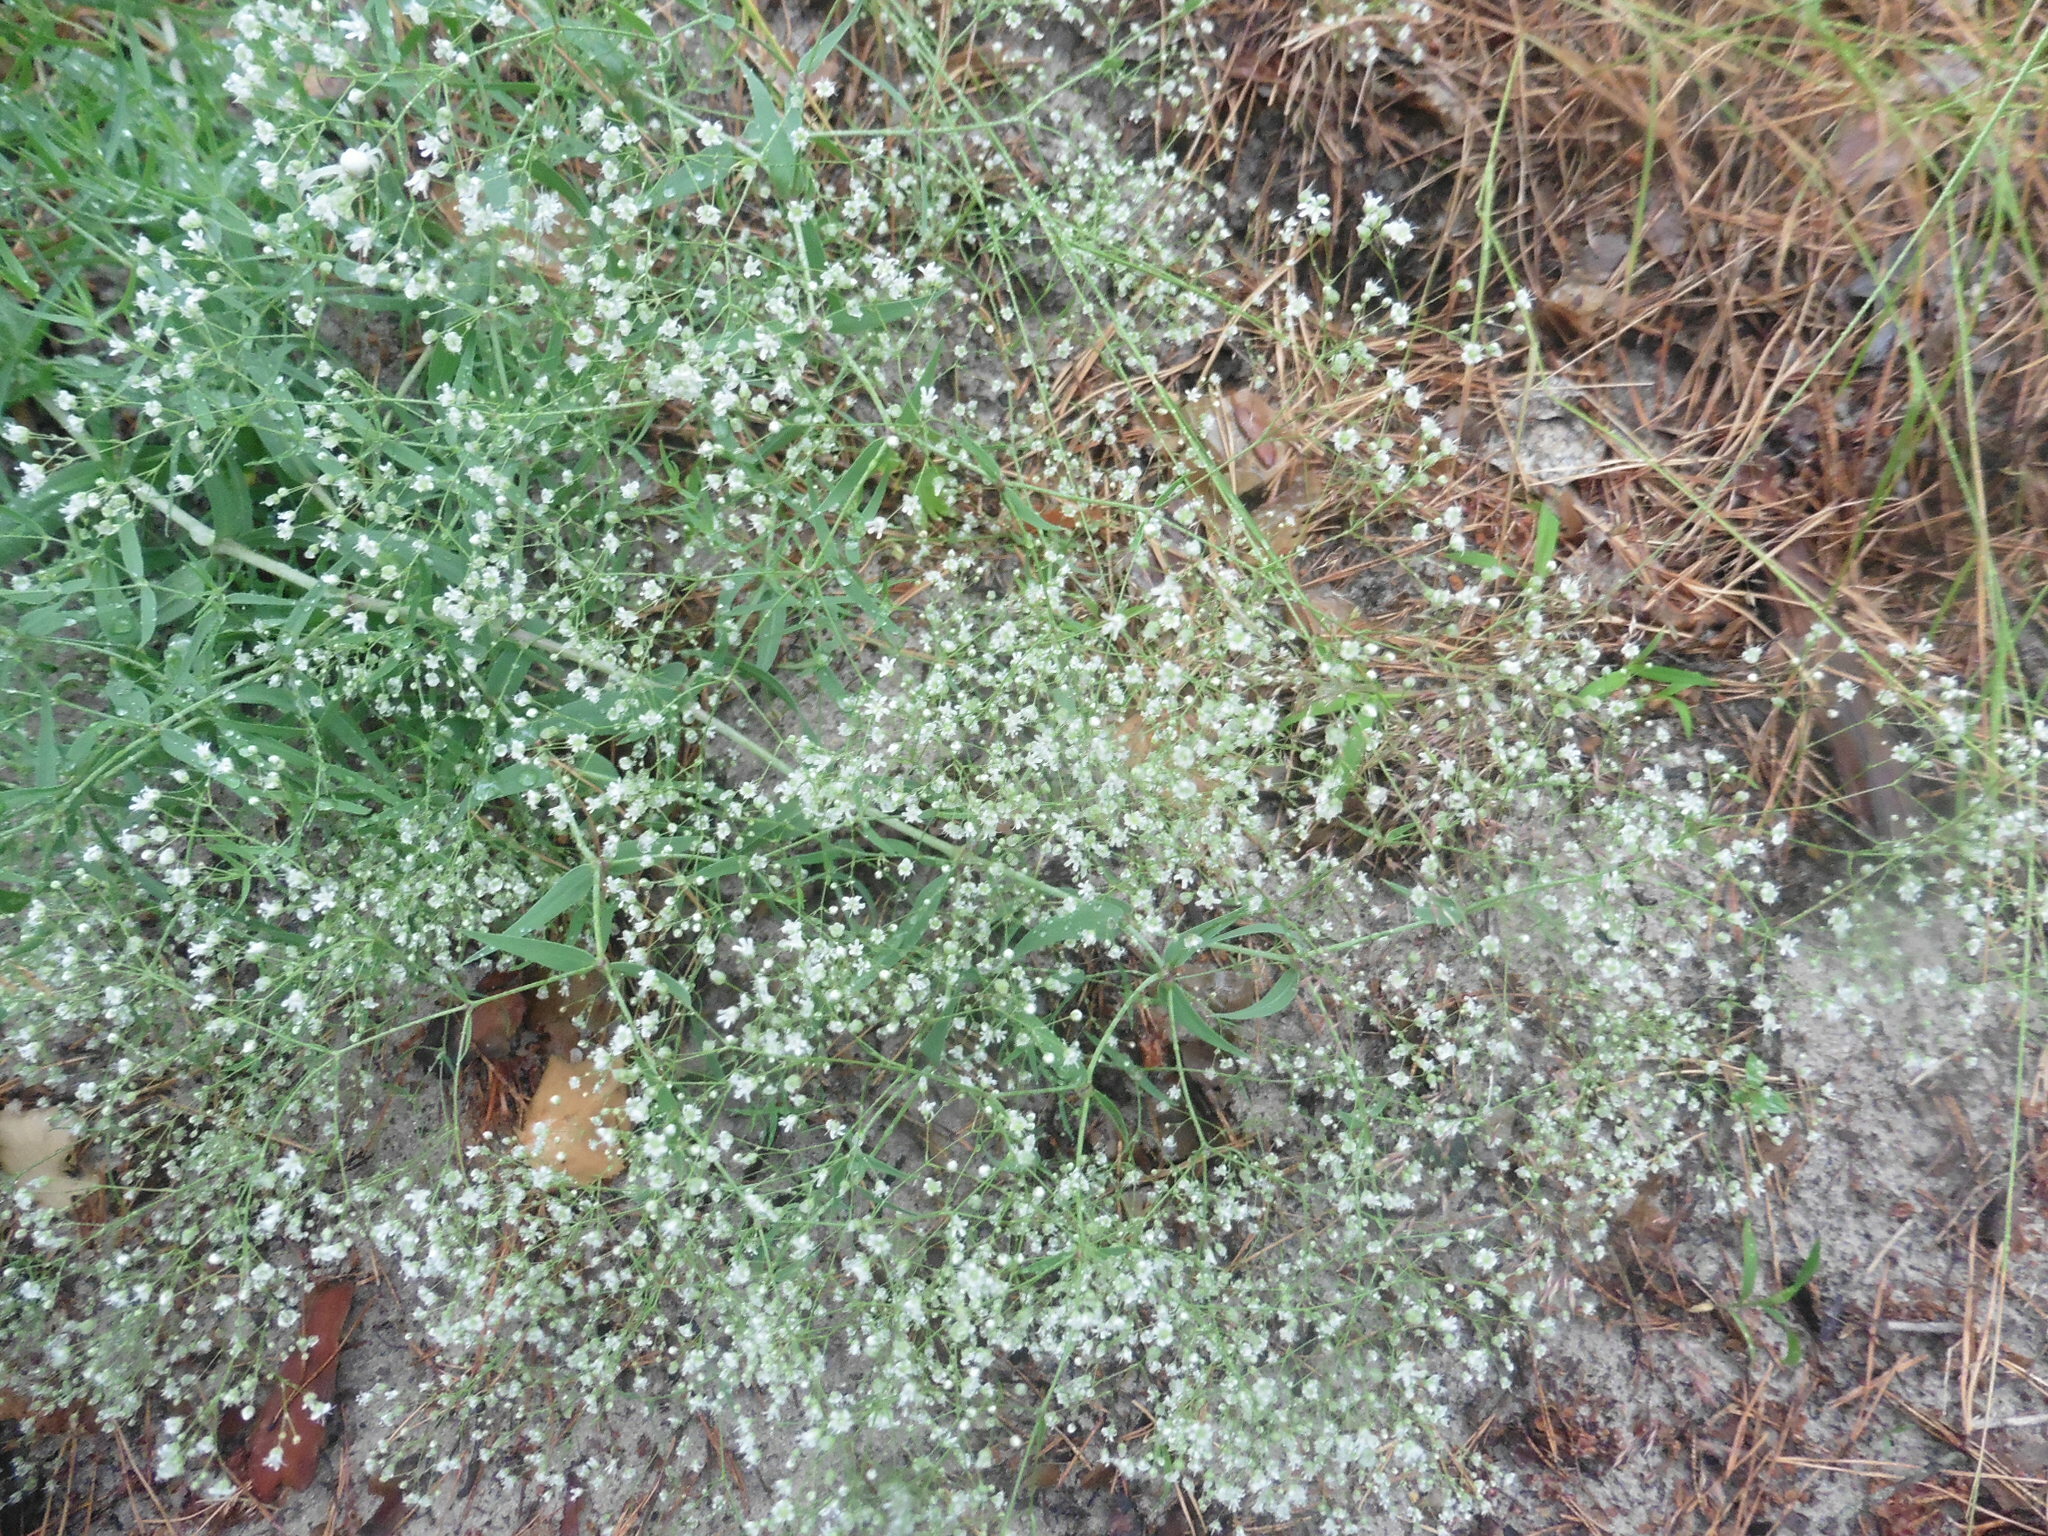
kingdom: Plantae
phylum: Tracheophyta
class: Magnoliopsida
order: Caryophyllales
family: Caryophyllaceae
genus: Gypsophila
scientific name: Gypsophila paniculata
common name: Baby's-breath
